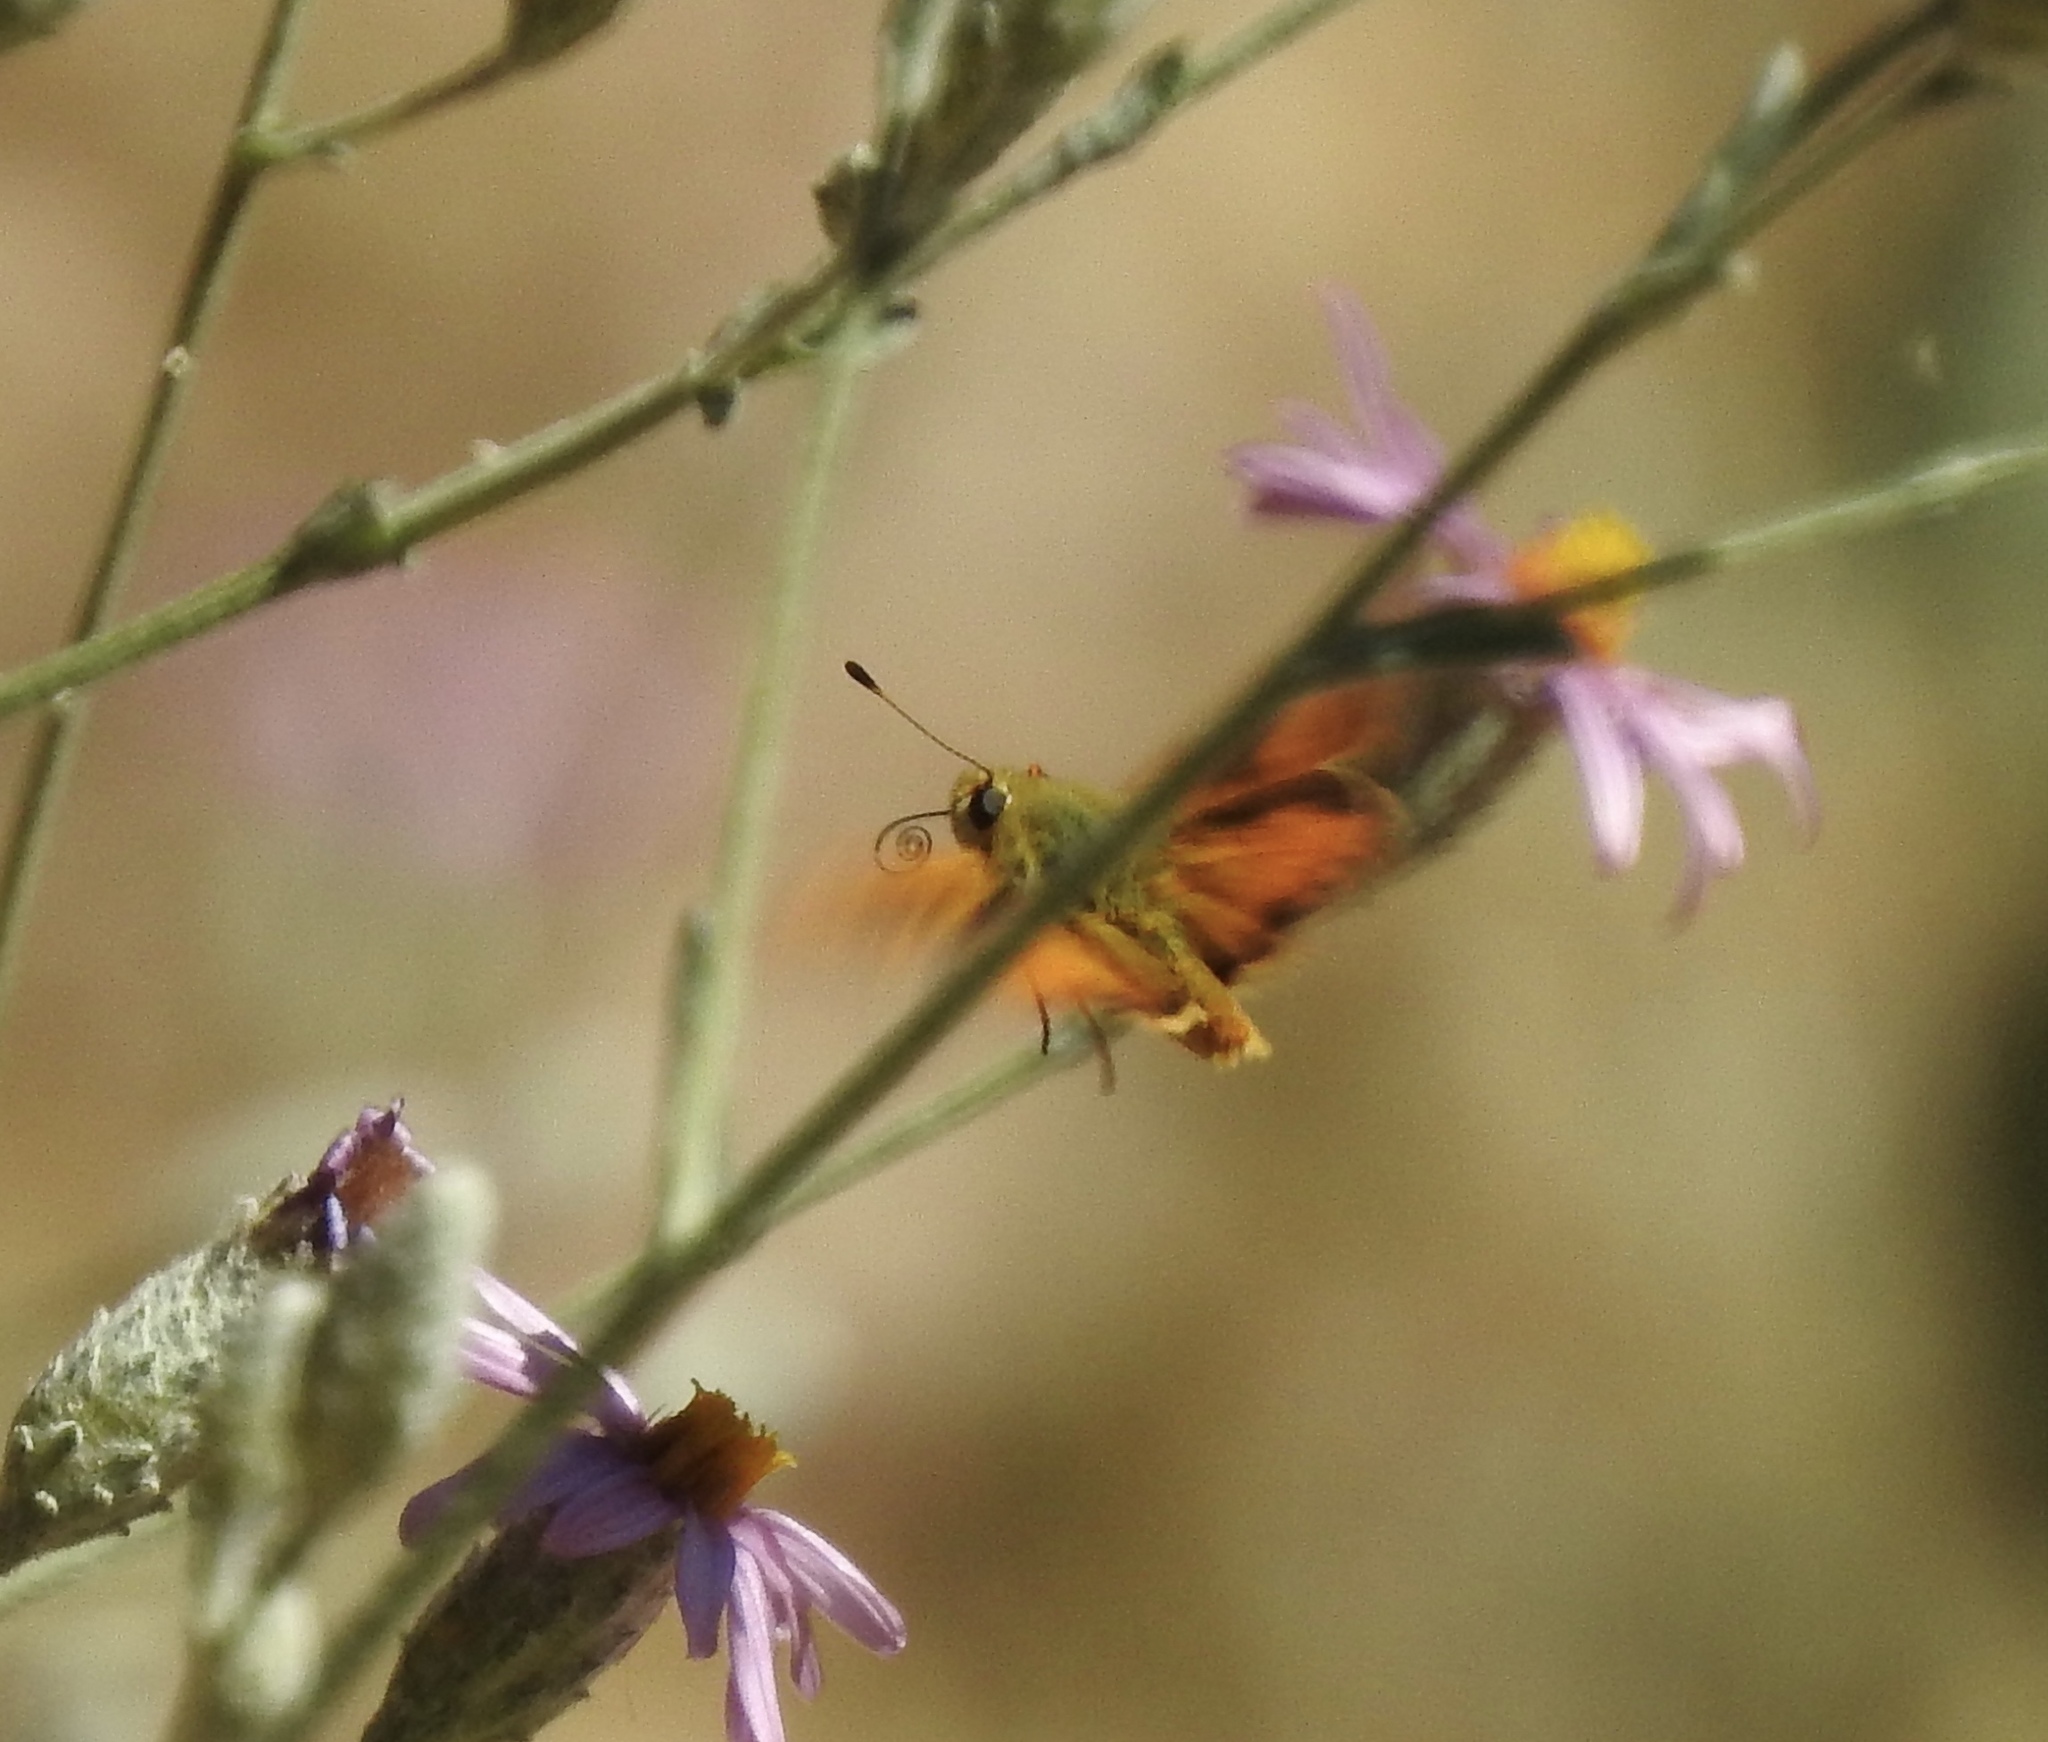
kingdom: Animalia
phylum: Arthropoda
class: Insecta
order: Lepidoptera
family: Hesperiidae
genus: Ochlodes
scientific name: Ochlodes sylvanoides
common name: Woodland skipper
